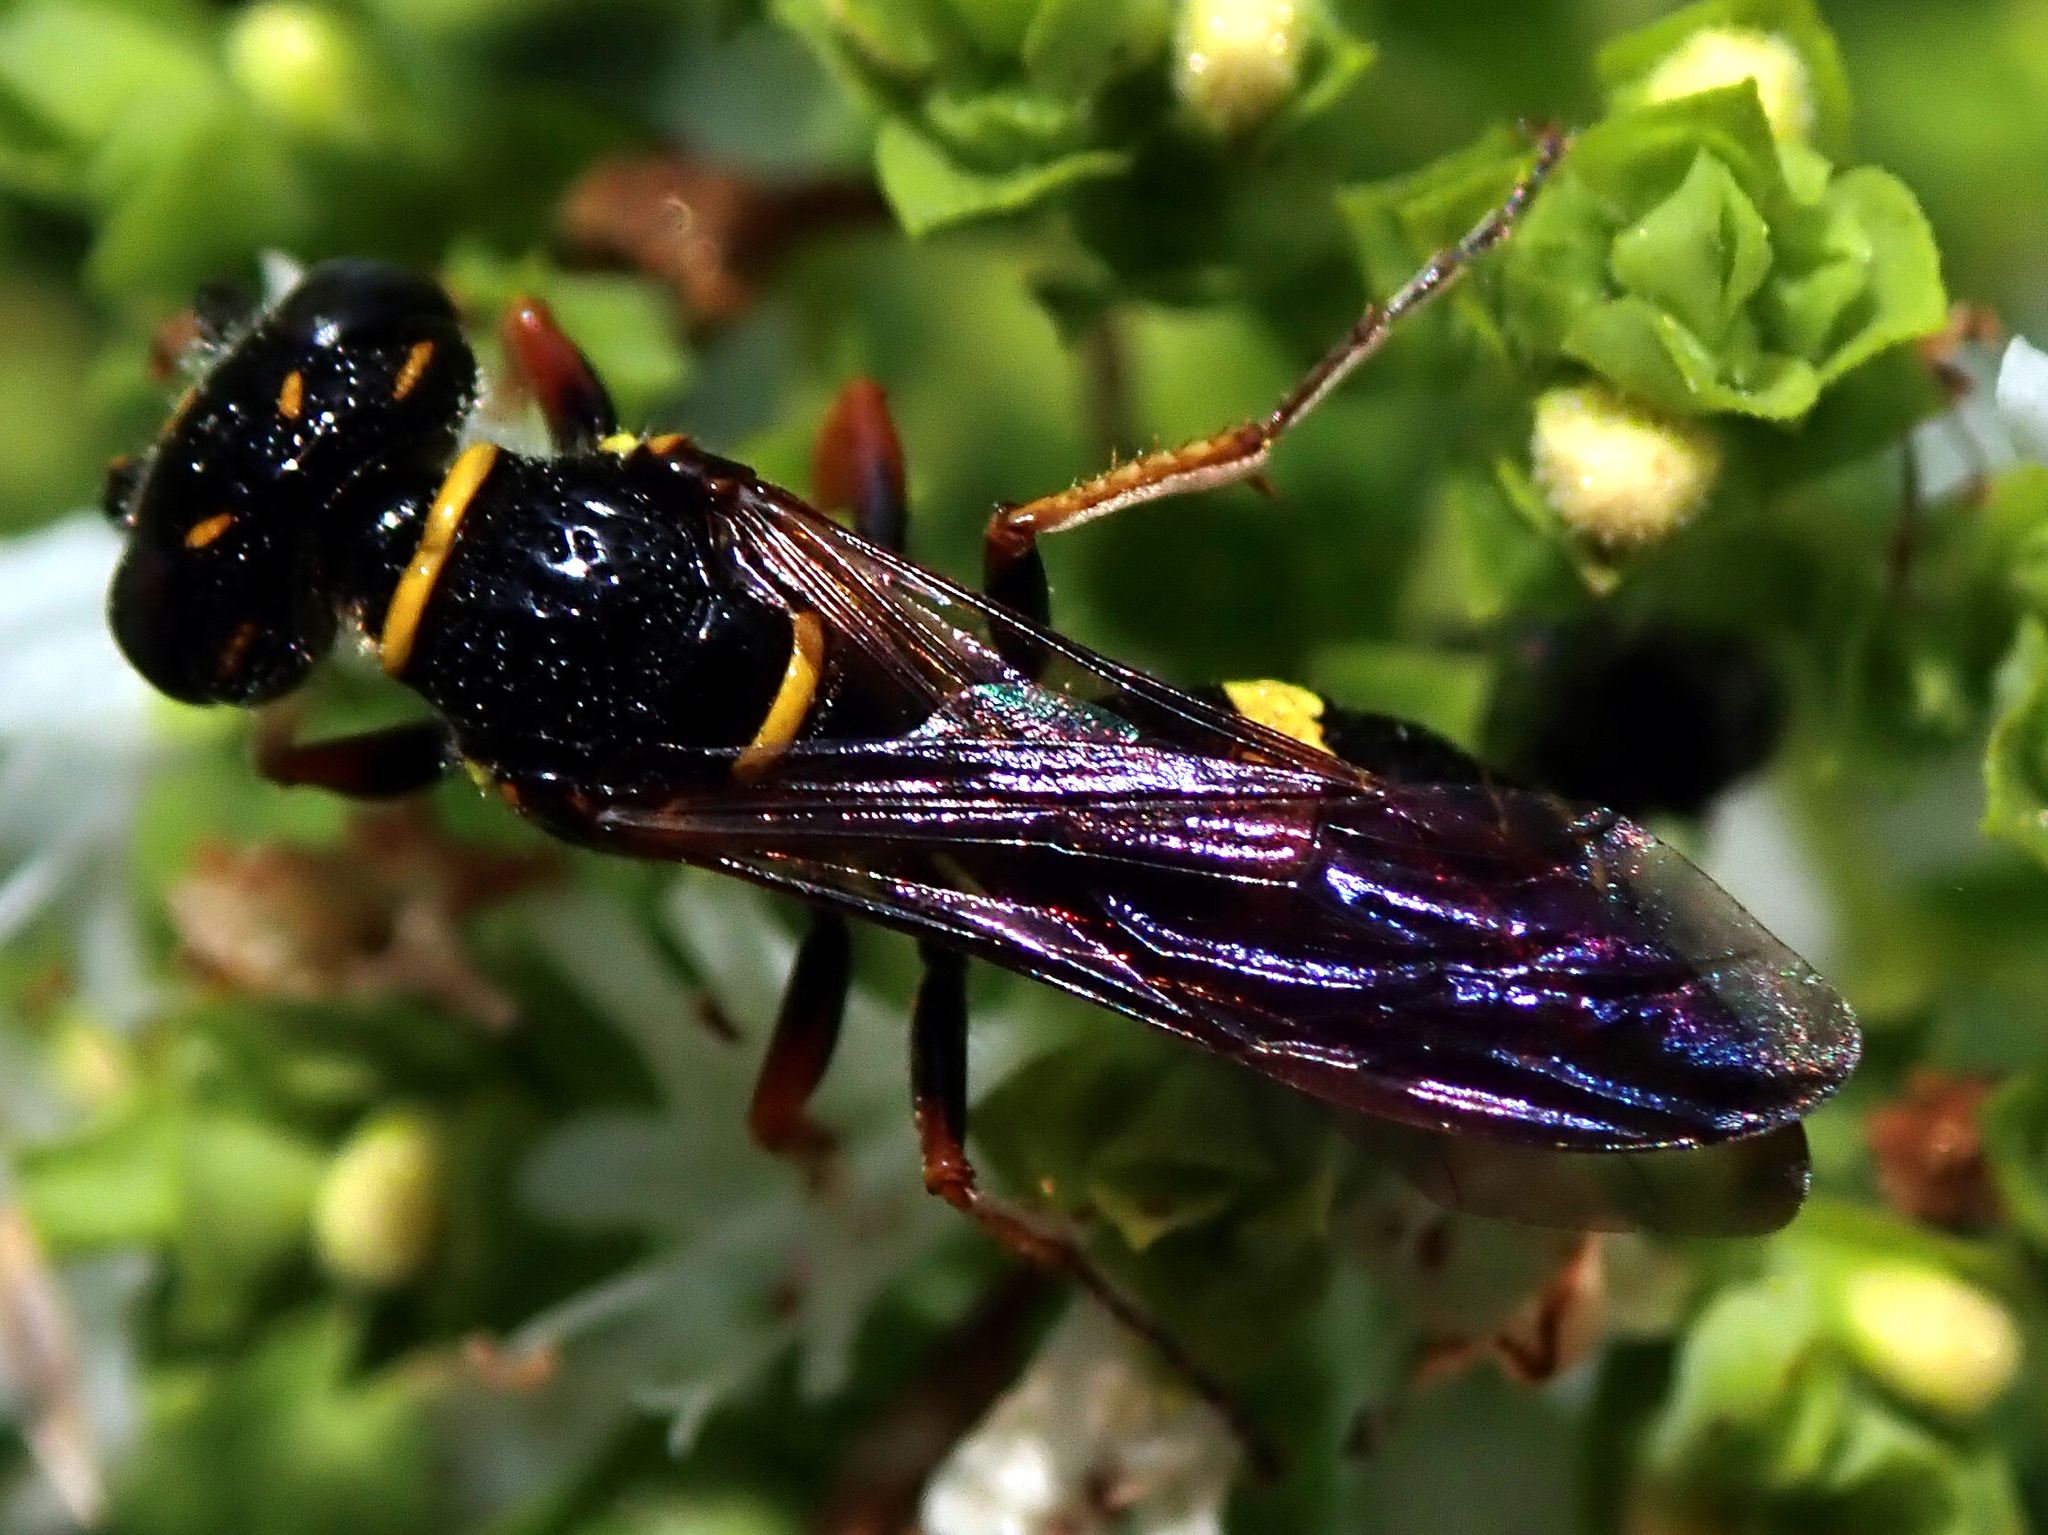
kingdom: Animalia
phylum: Arthropoda
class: Insecta
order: Hymenoptera
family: Crabronidae
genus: Philanthus
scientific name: Philanthus gibbosus
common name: Humped beewolf
